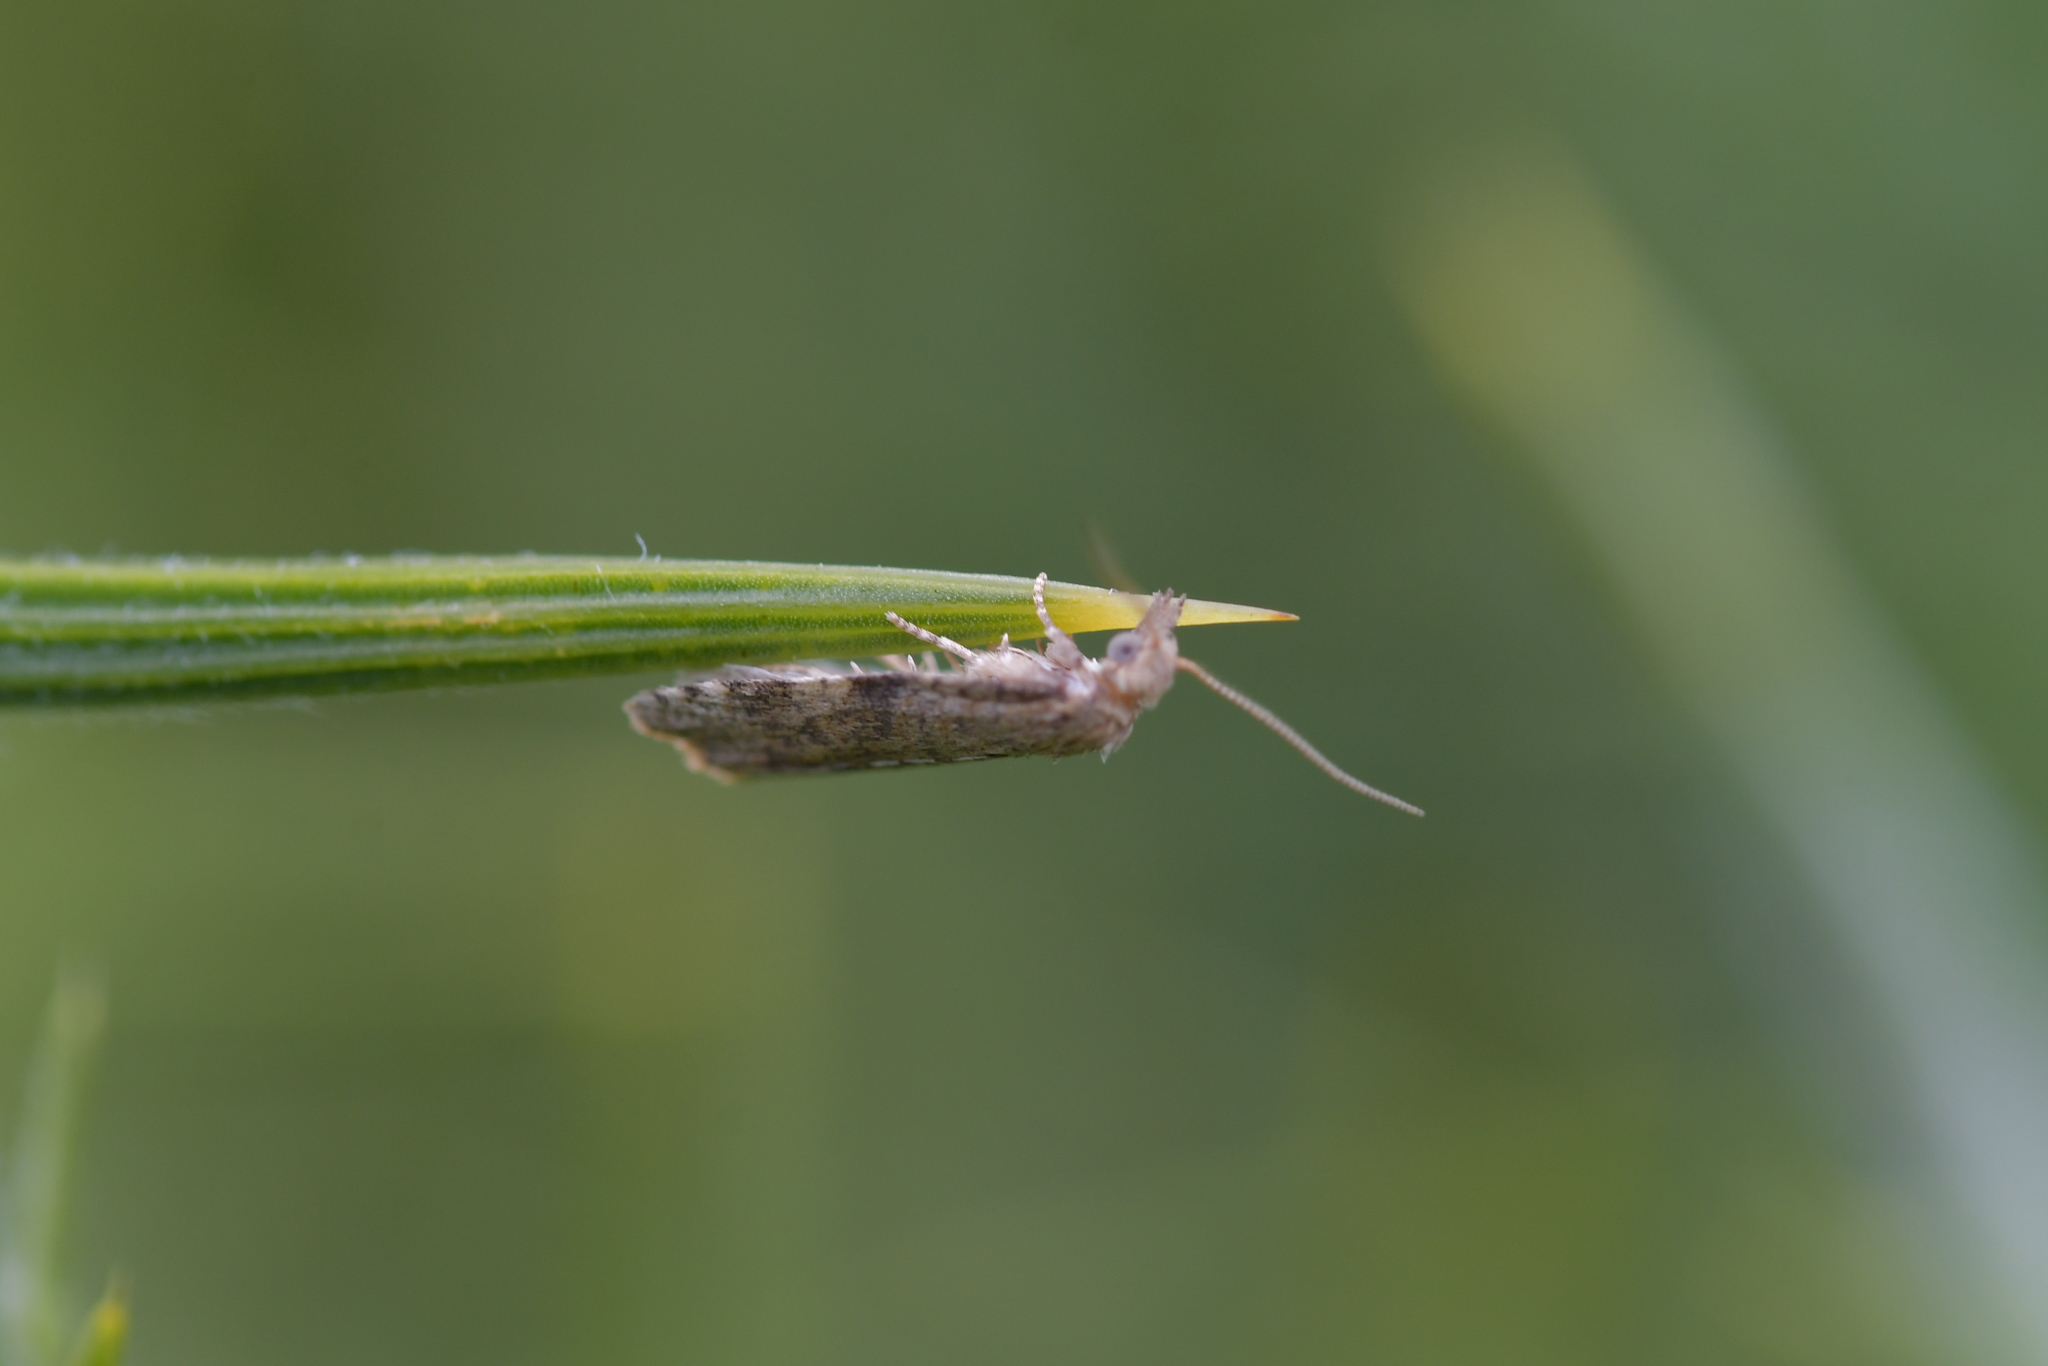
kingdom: Animalia
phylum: Arthropoda
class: Insecta
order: Lepidoptera
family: Tortricidae
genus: Catamacta
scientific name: Catamacta gavisana
